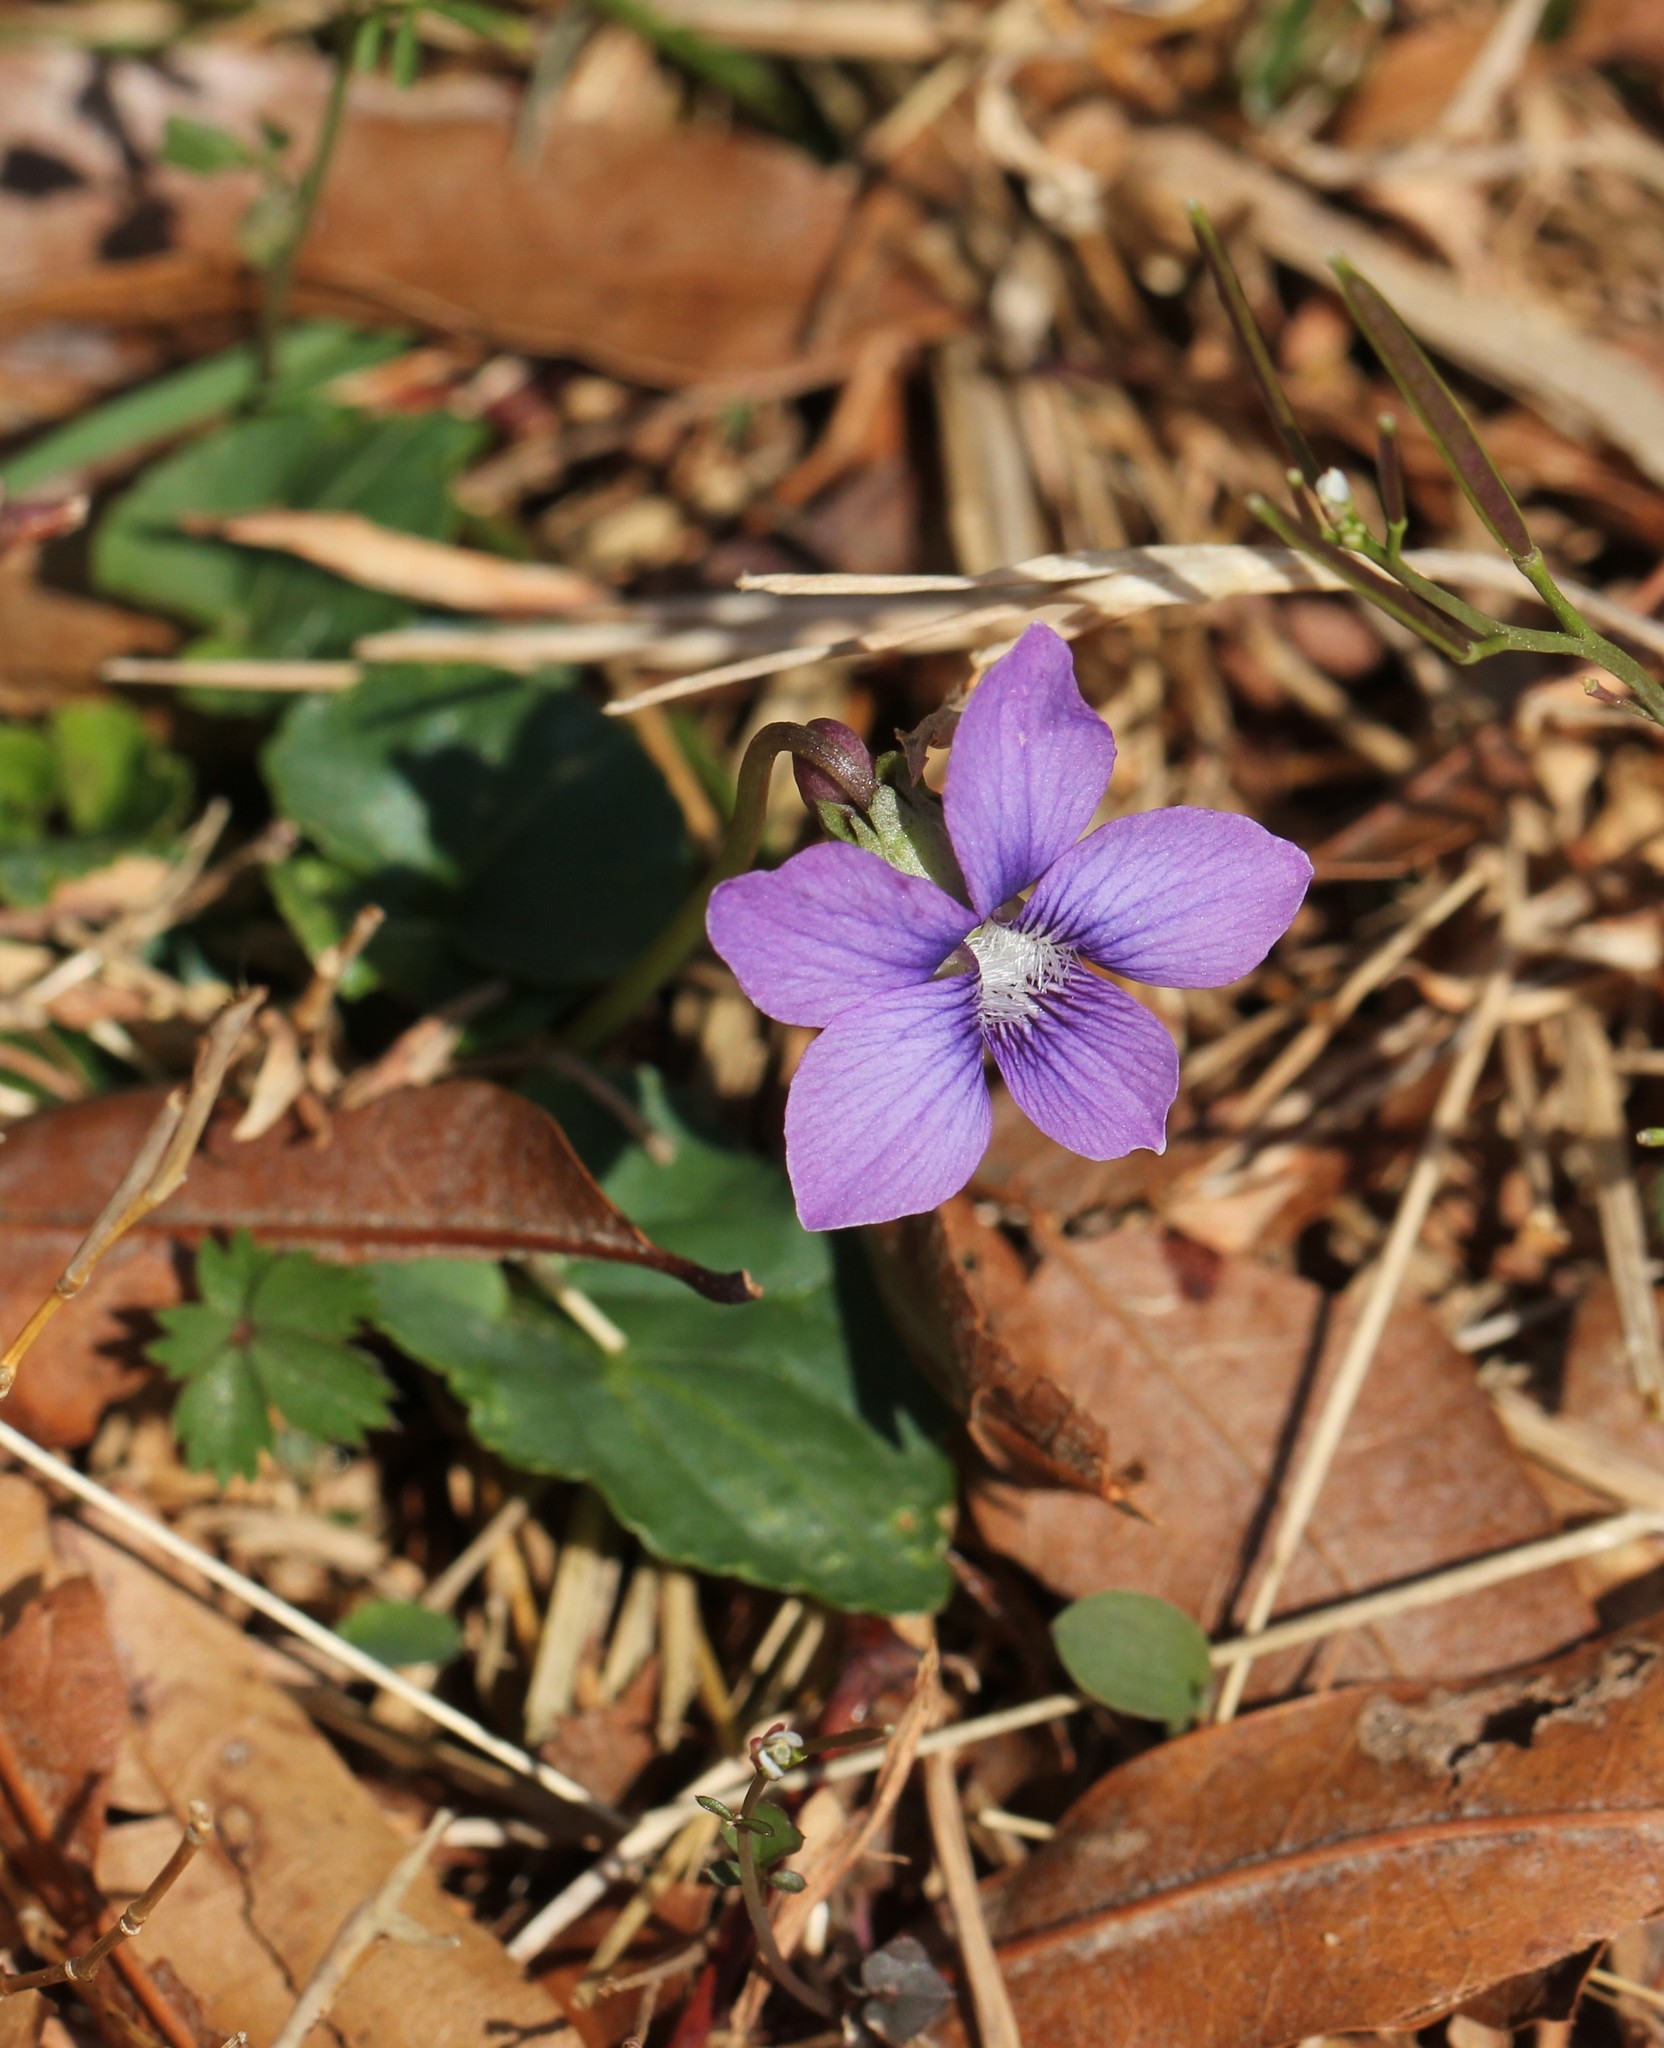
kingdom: Plantae
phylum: Tracheophyta
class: Magnoliopsida
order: Malpighiales
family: Violaceae
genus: Viola
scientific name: Viola sororia
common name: Dooryard violet
